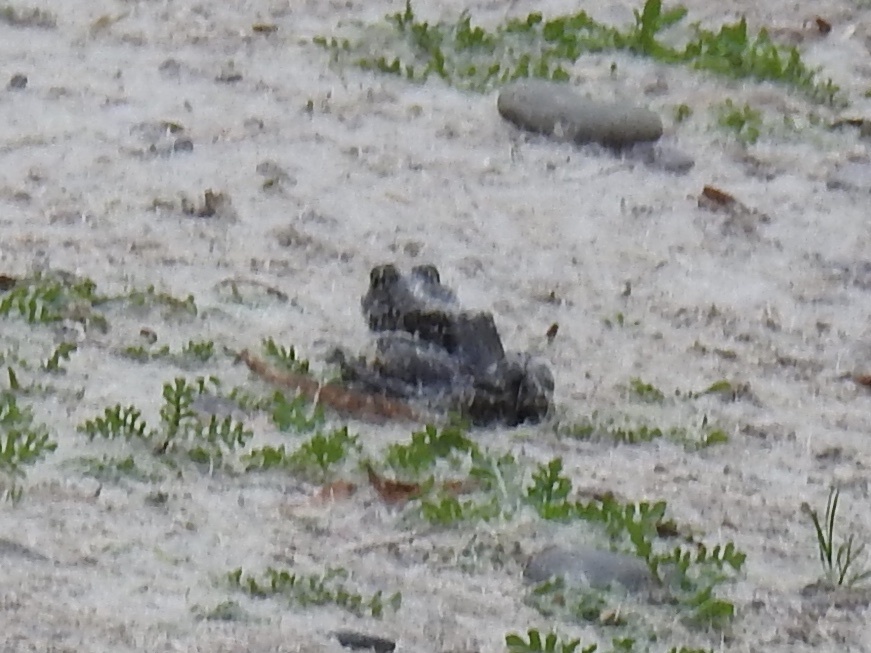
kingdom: Animalia
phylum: Chordata
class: Amphibia
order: Anura
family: Ranidae
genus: Lithobates
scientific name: Lithobates catesbeianus
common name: American bullfrog
